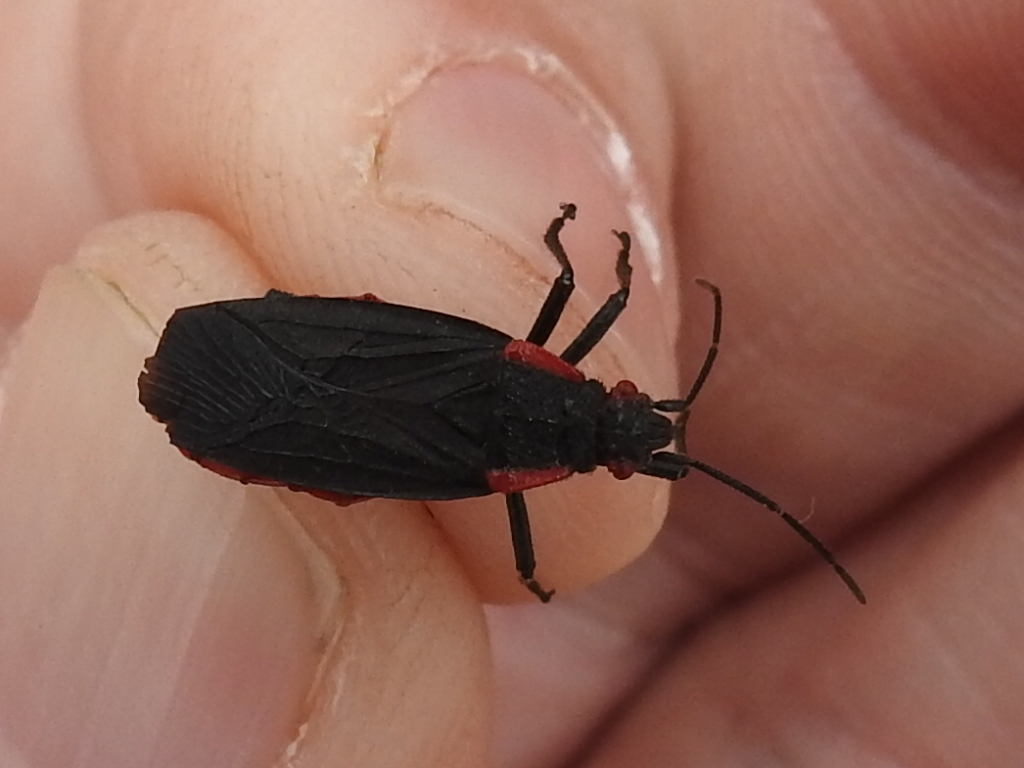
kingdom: Animalia
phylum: Arthropoda
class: Insecta
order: Hemiptera
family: Rhopalidae
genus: Jadera
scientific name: Jadera haematoloma
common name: Red-shouldered bug
